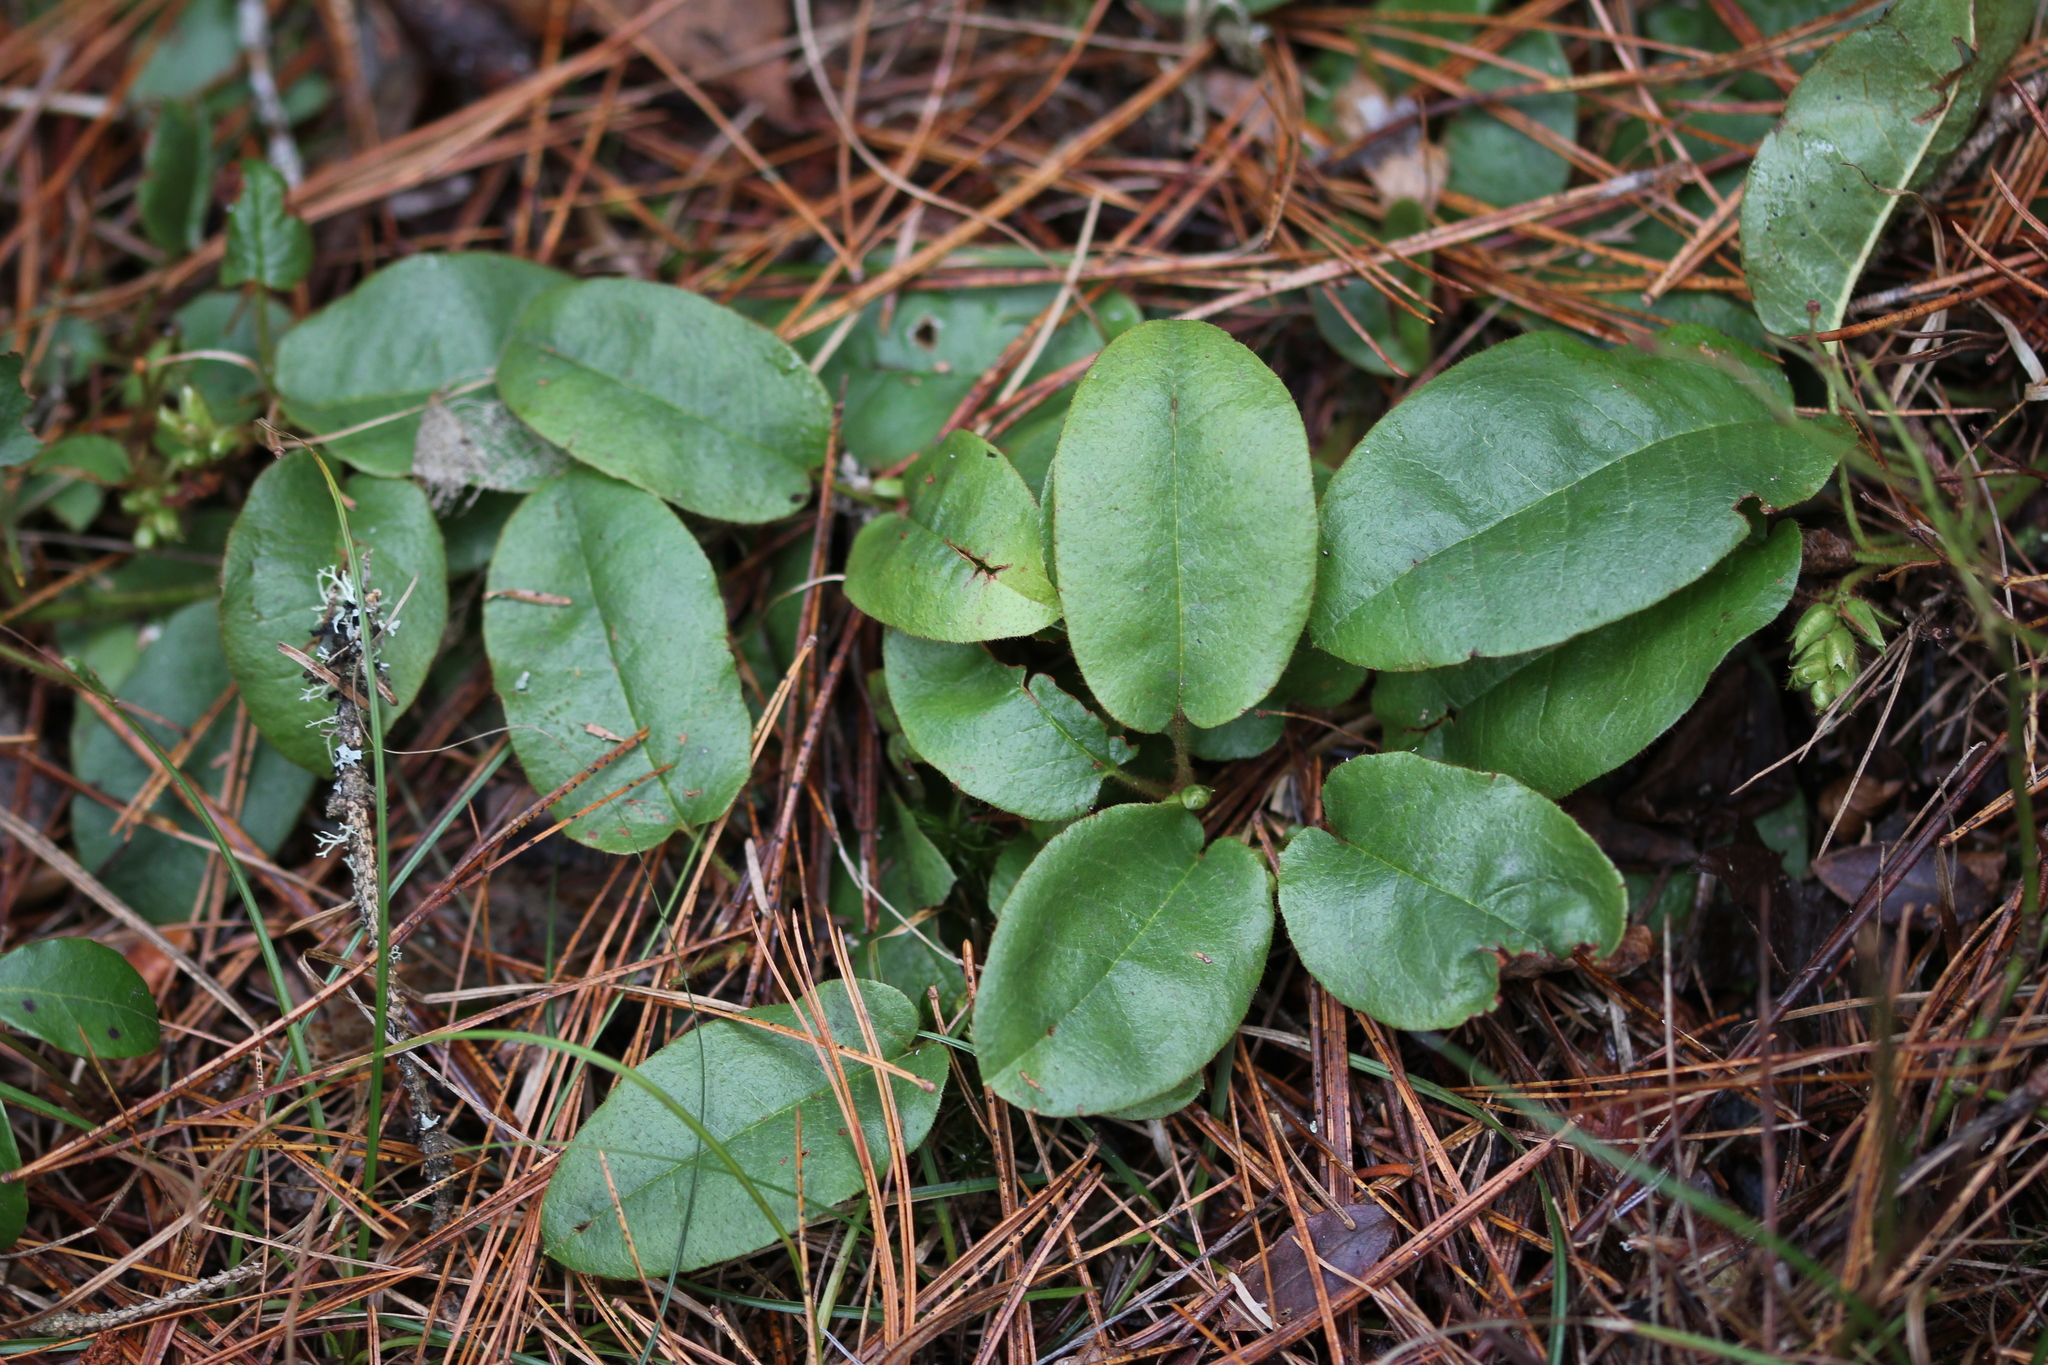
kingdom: Plantae
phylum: Tracheophyta
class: Magnoliopsida
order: Ericales
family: Ericaceae
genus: Epigaea
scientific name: Epigaea repens
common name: Gravelroot
